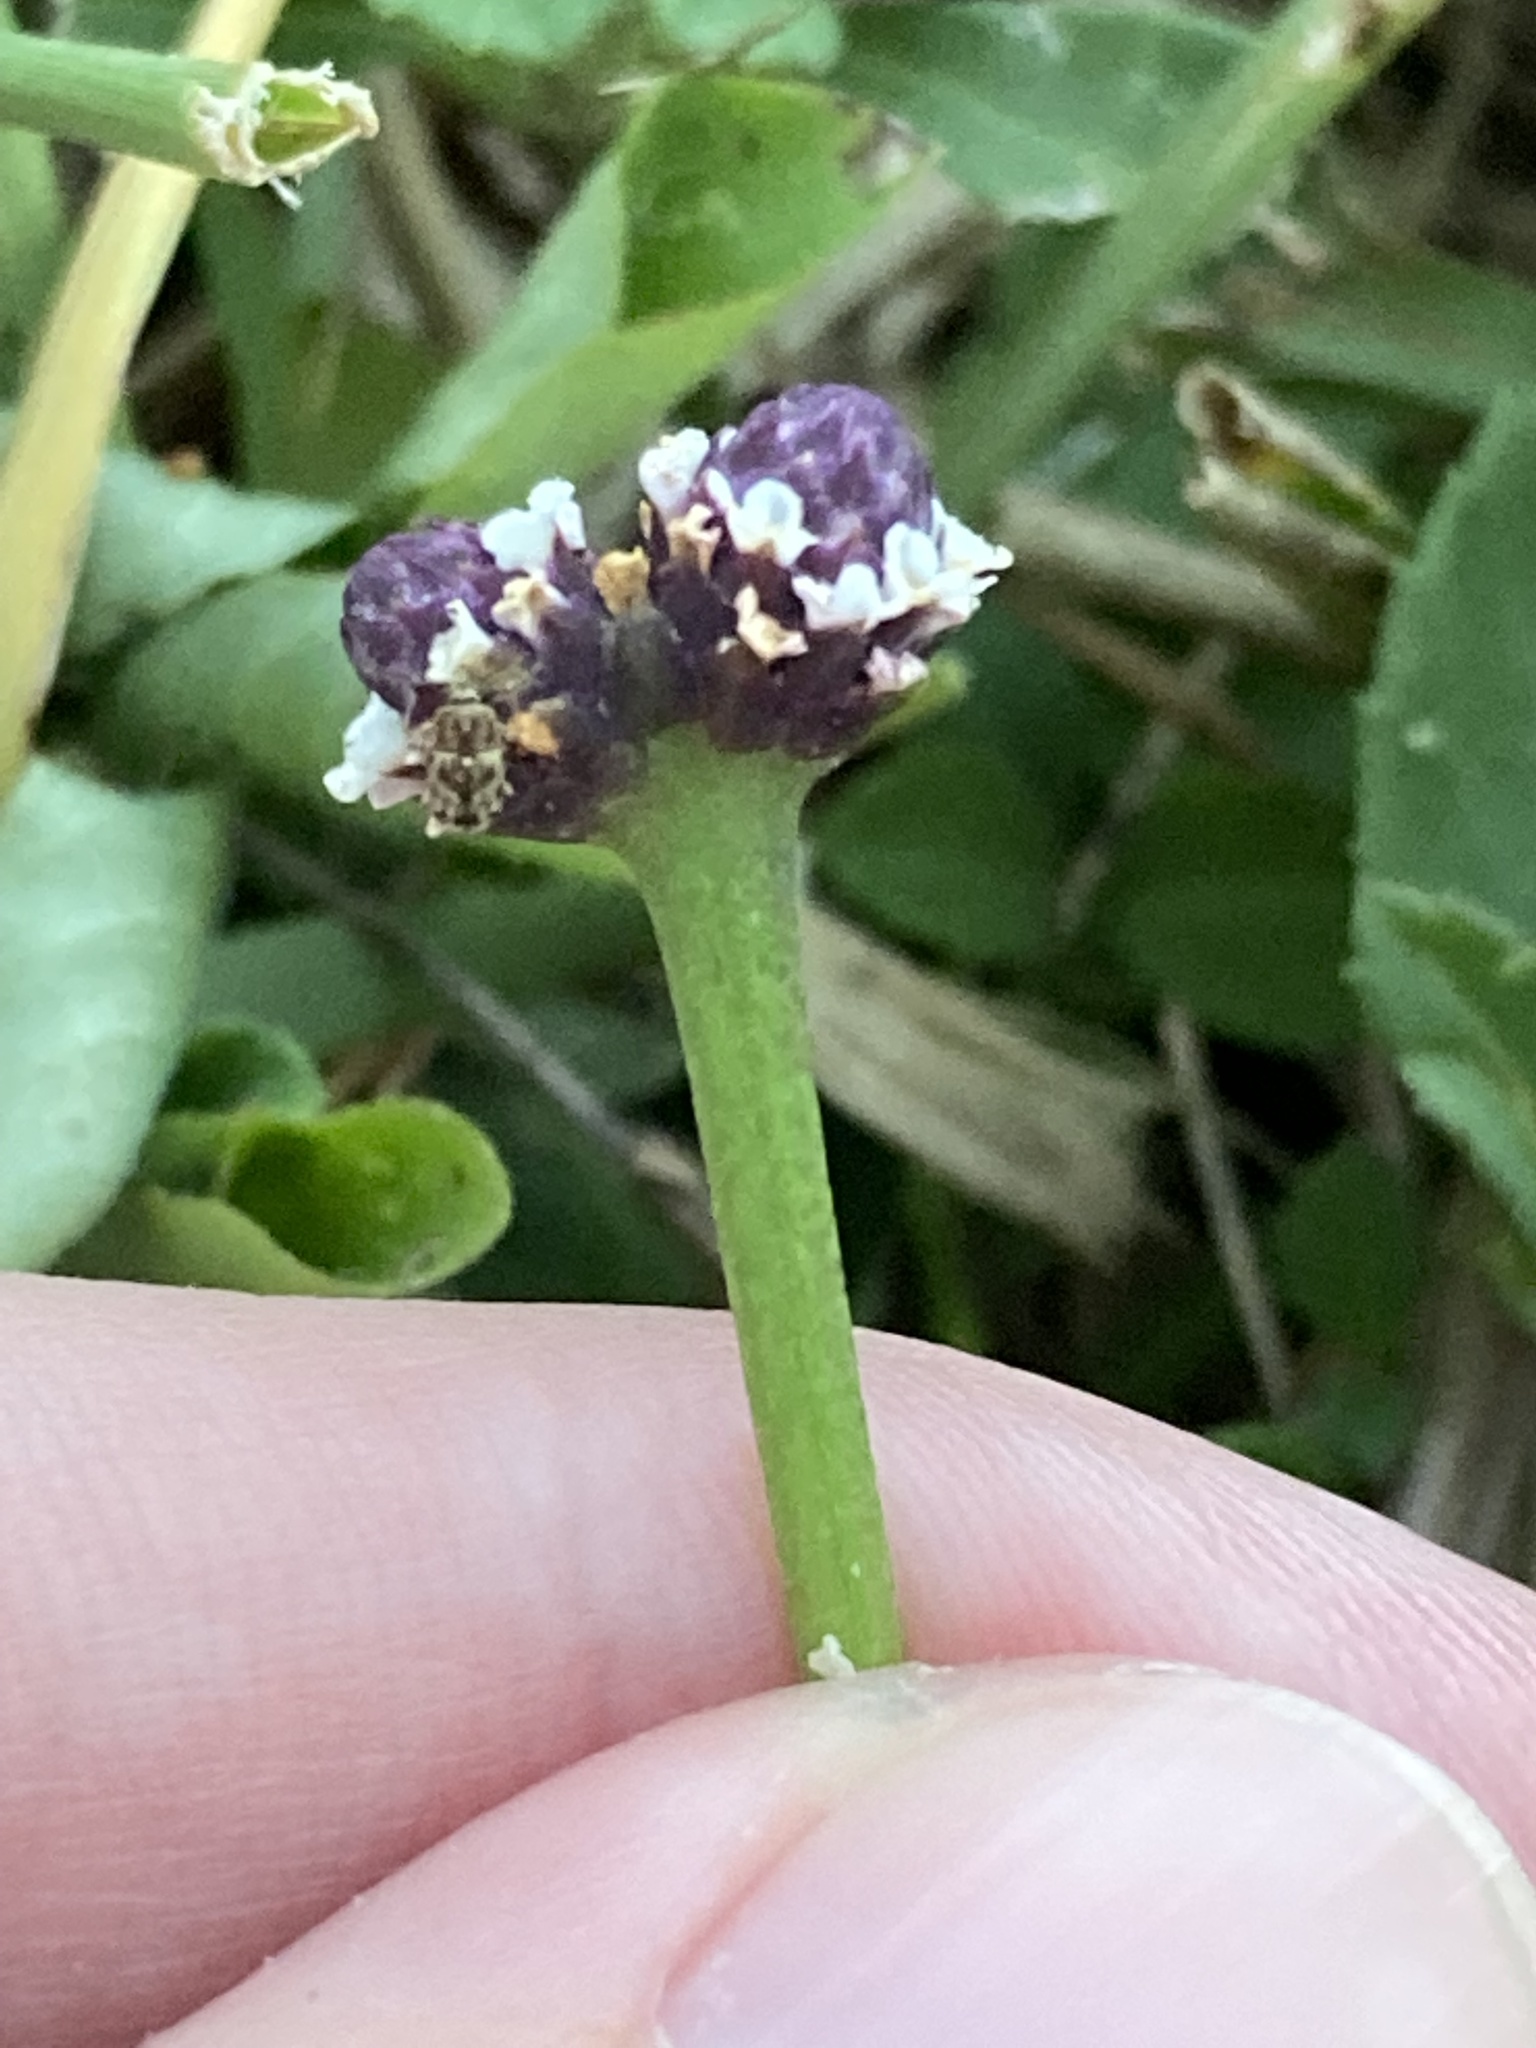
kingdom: Plantae
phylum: Tracheophyta
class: Magnoliopsida
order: Lamiales
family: Verbenaceae
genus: Phyla
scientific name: Phyla nodiflora
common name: Frogfruit
